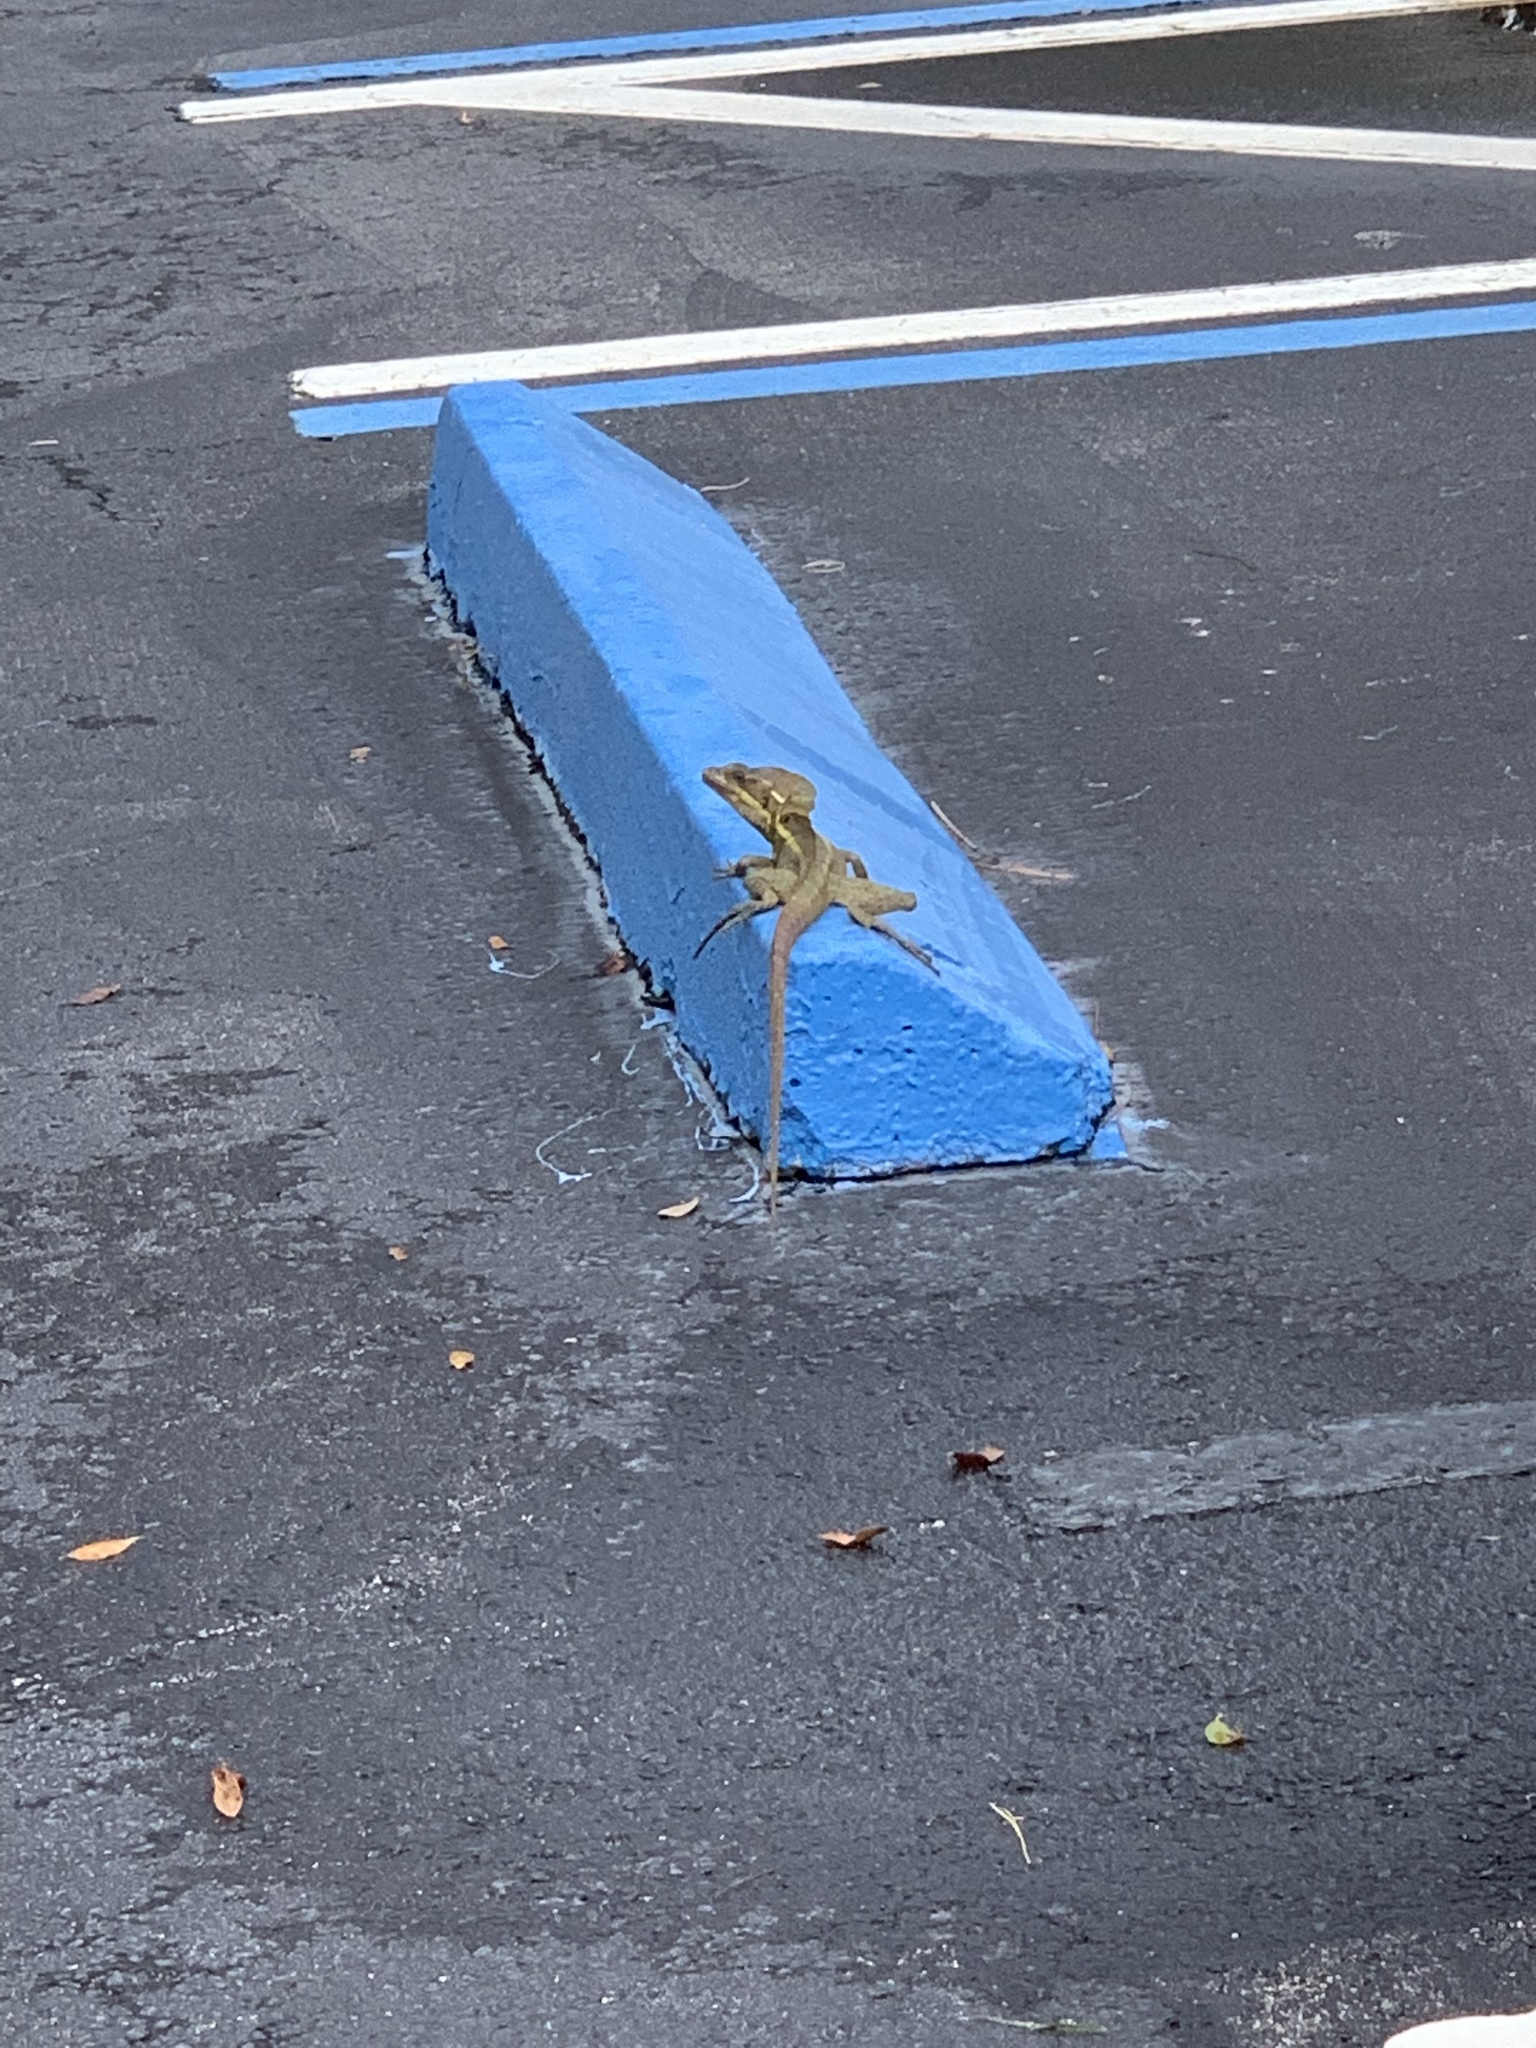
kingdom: Animalia
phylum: Chordata
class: Squamata
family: Corytophanidae
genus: Basiliscus
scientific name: Basiliscus vittatus
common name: Brown basilisk
